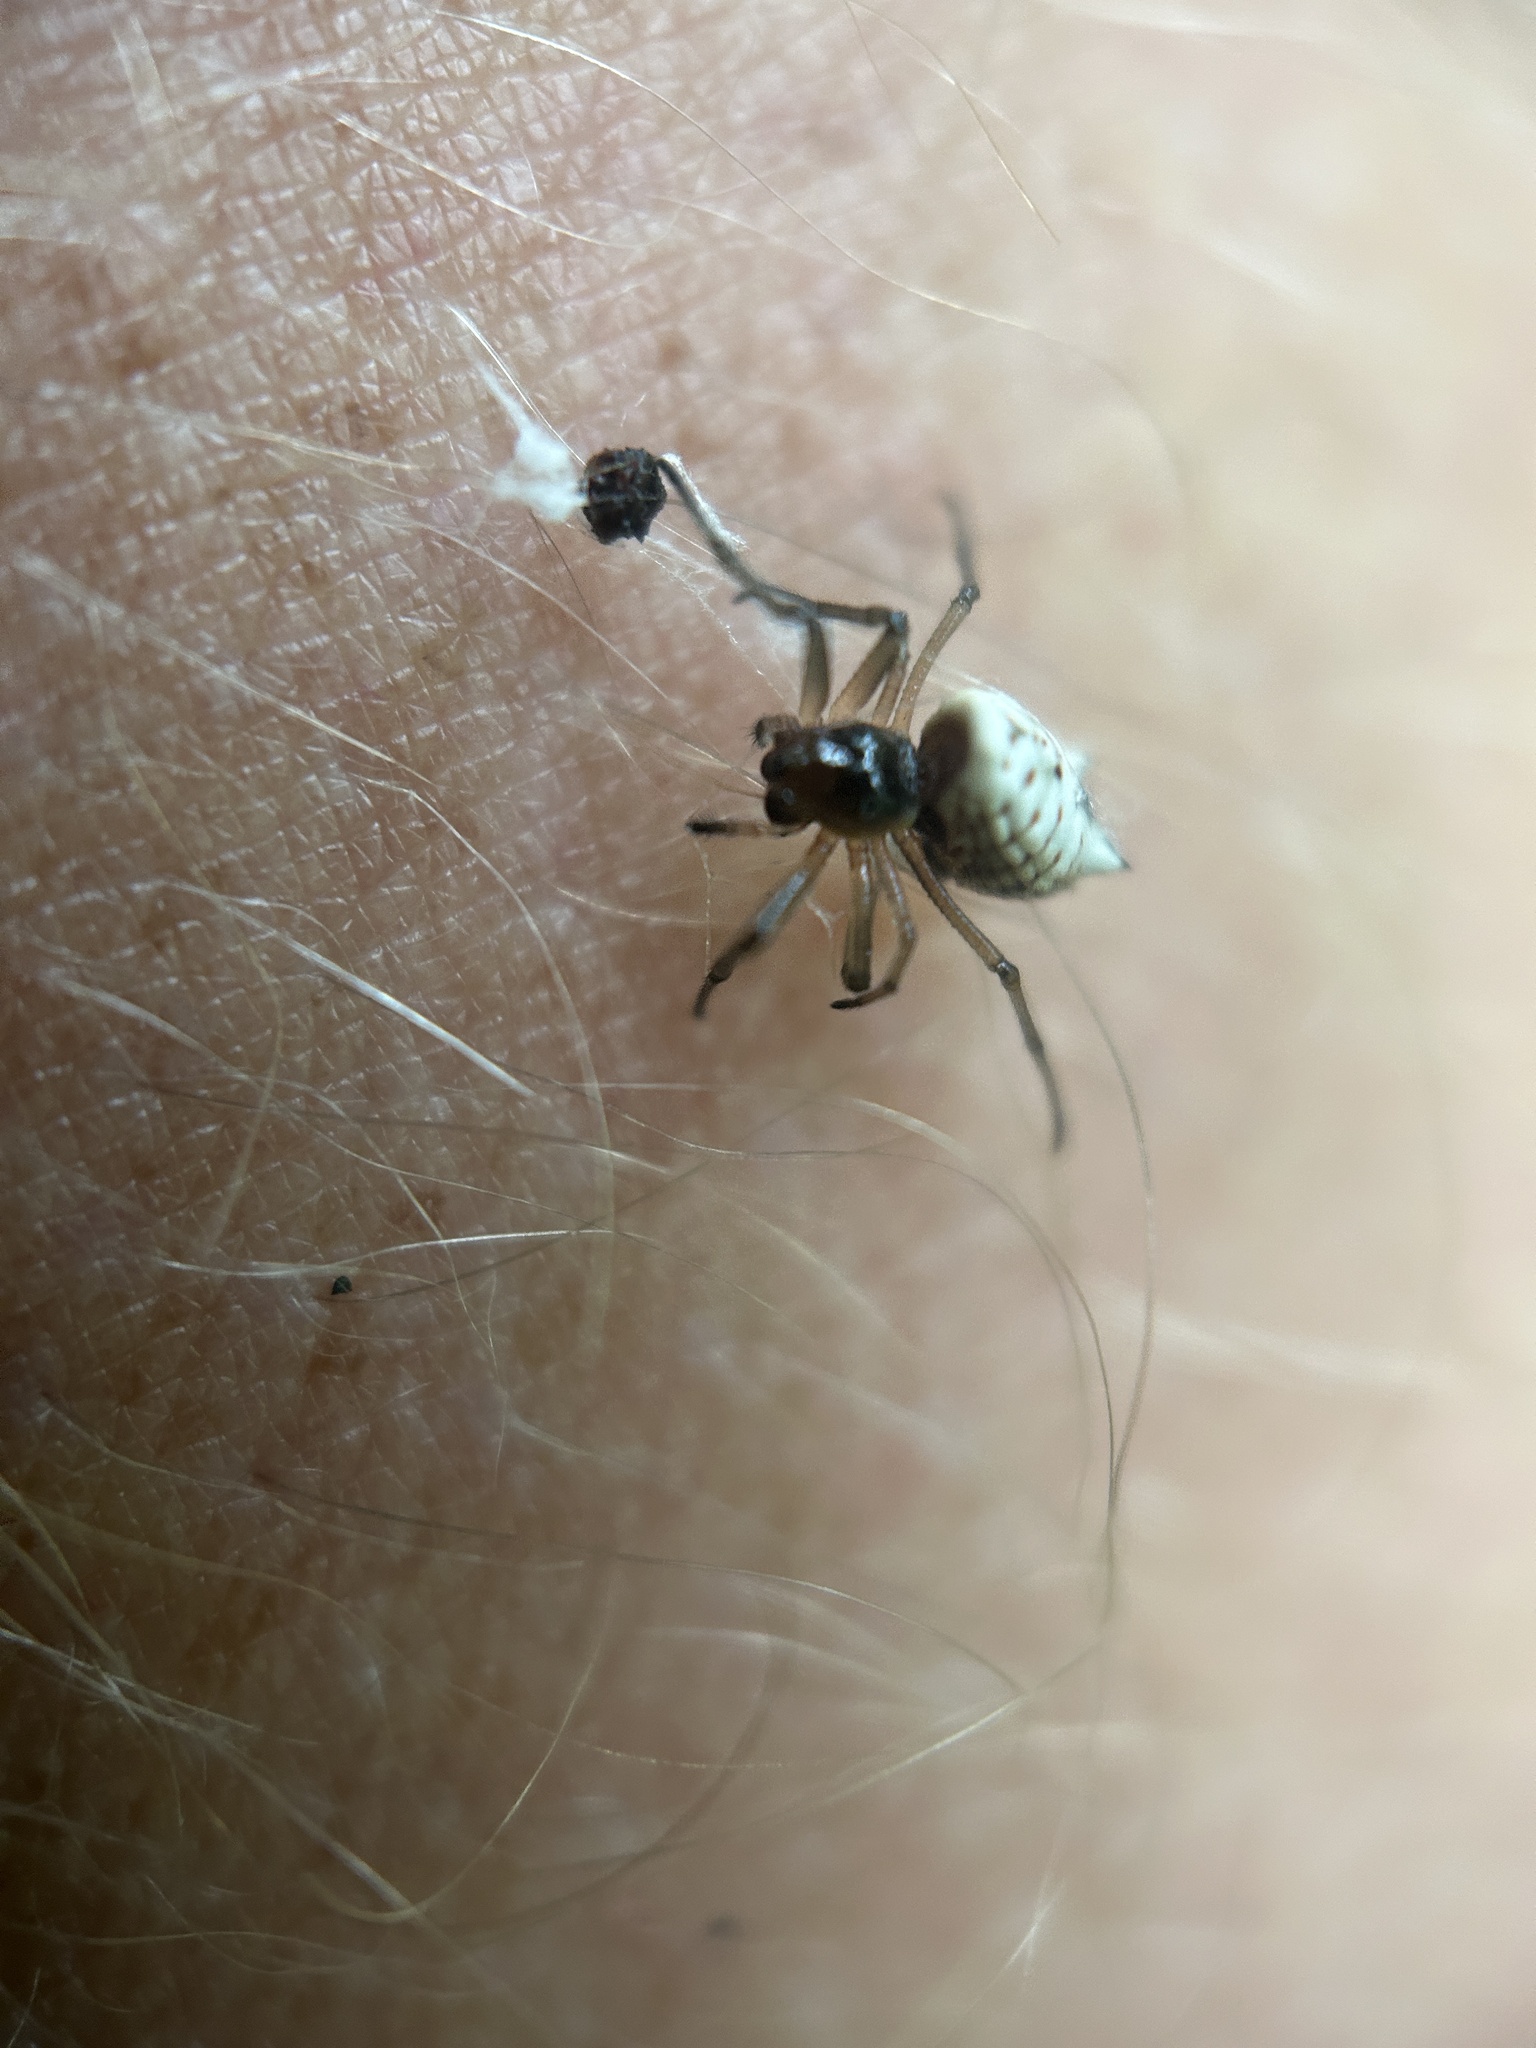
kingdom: Animalia
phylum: Arthropoda
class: Arachnida
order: Araneae
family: Araneidae
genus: Micrathena
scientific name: Micrathena mitrata
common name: Orb weavers
